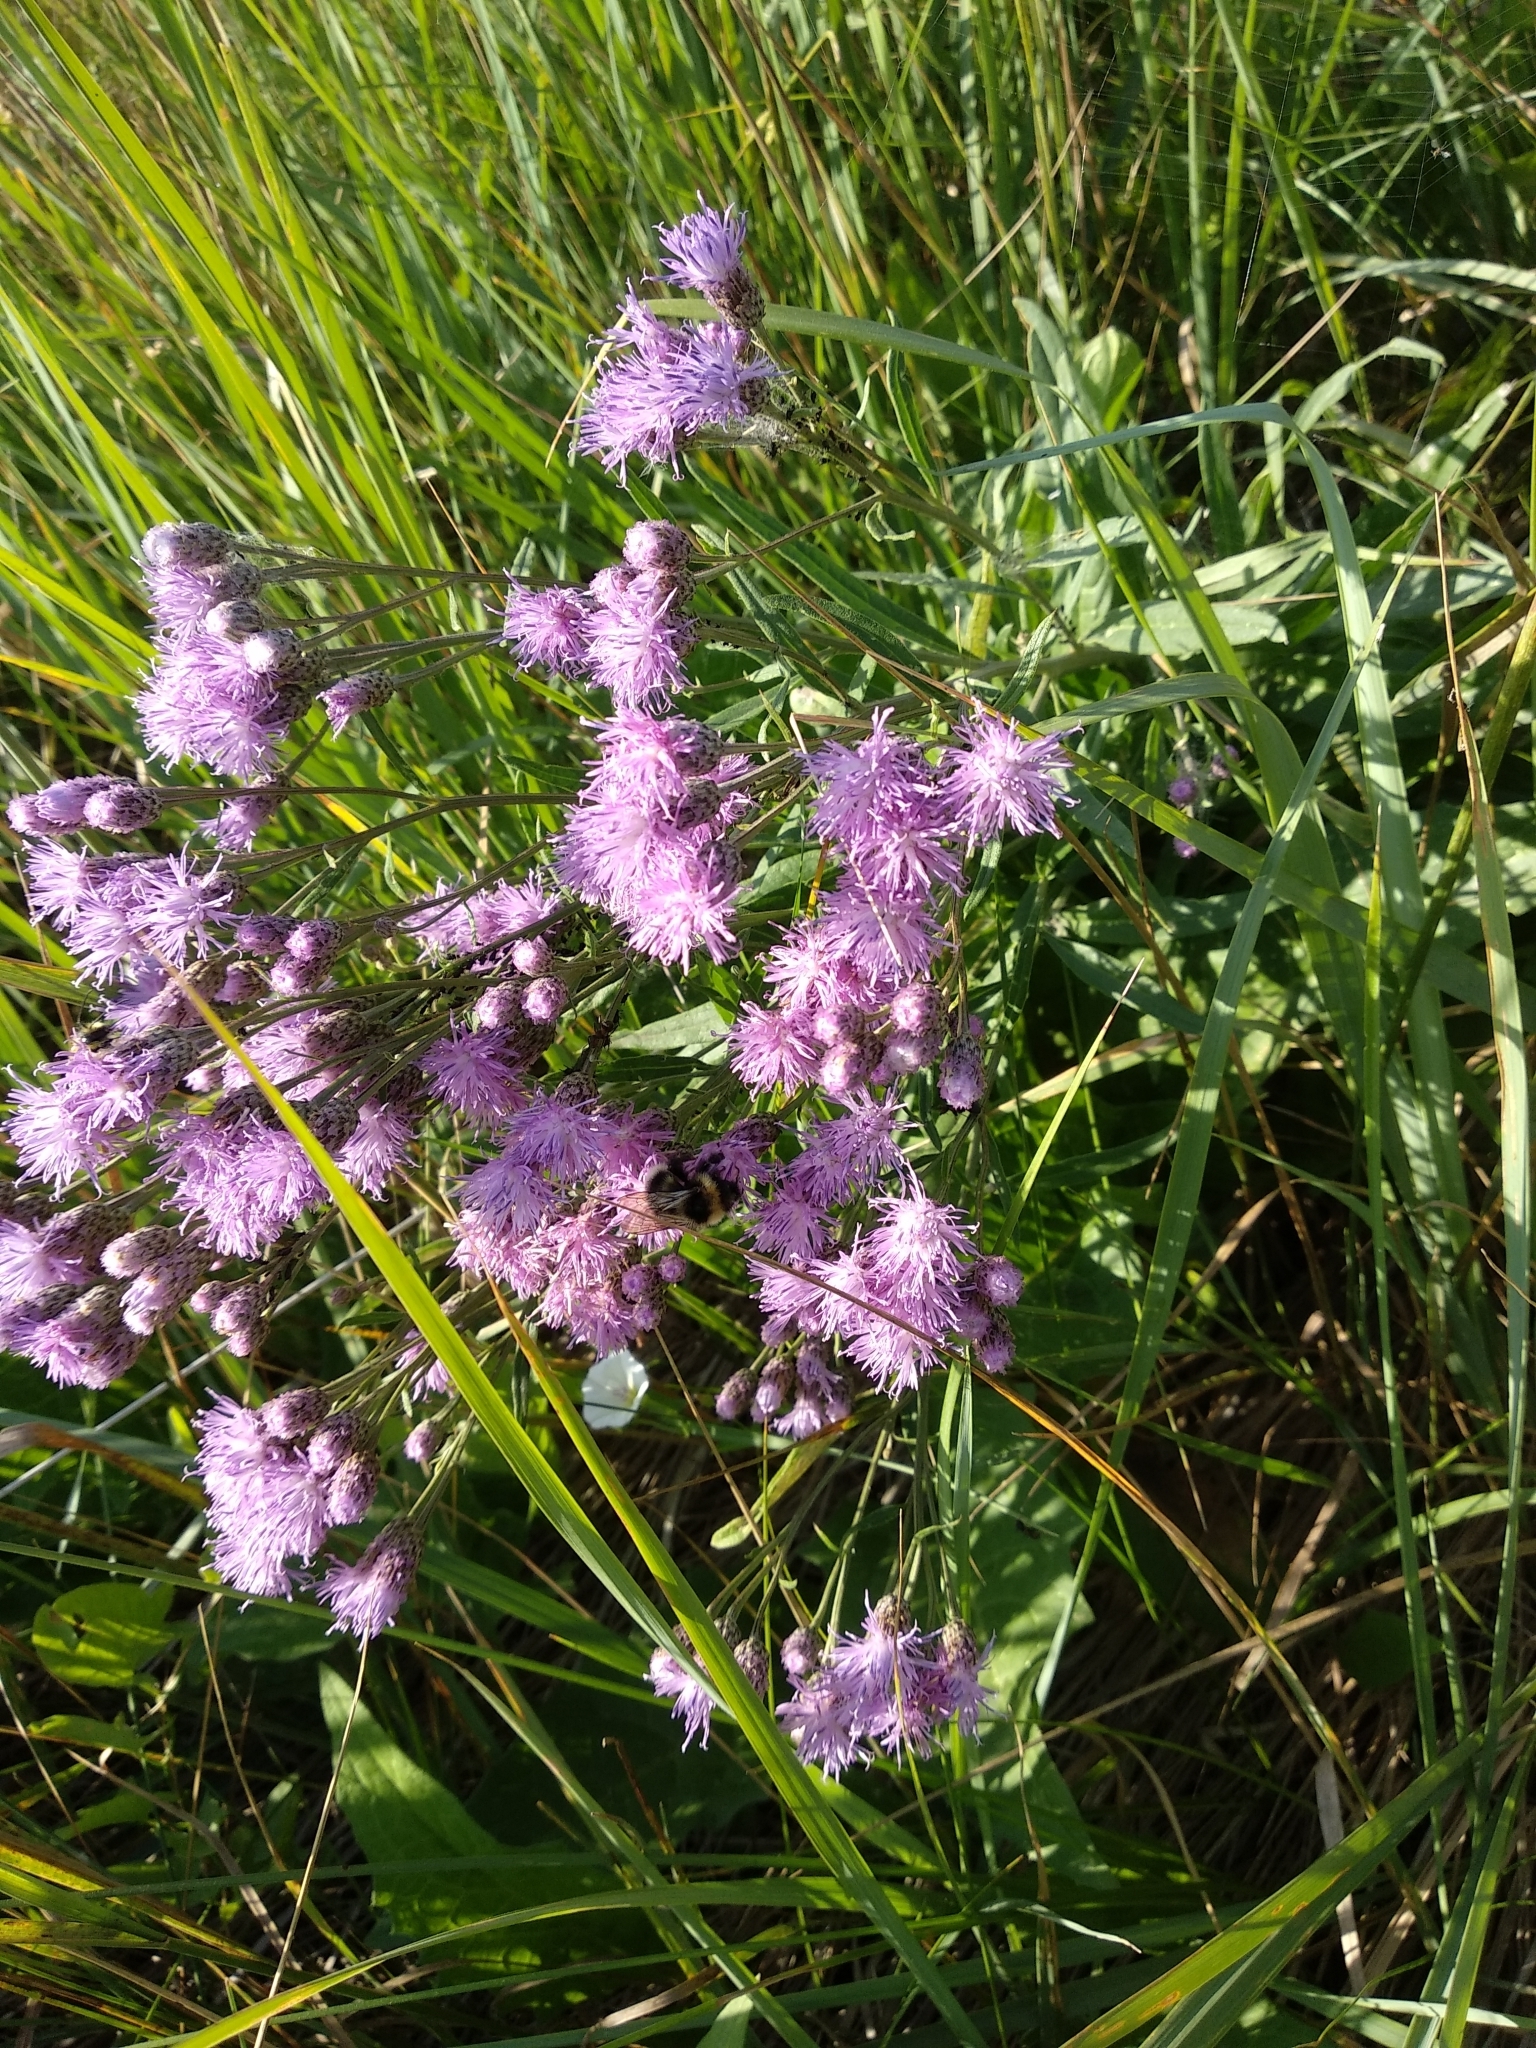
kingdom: Plantae
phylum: Tracheophyta
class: Magnoliopsida
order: Asterales
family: Asteraceae
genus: Saussurea
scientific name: Saussurea amara
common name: Alberta sawwort
